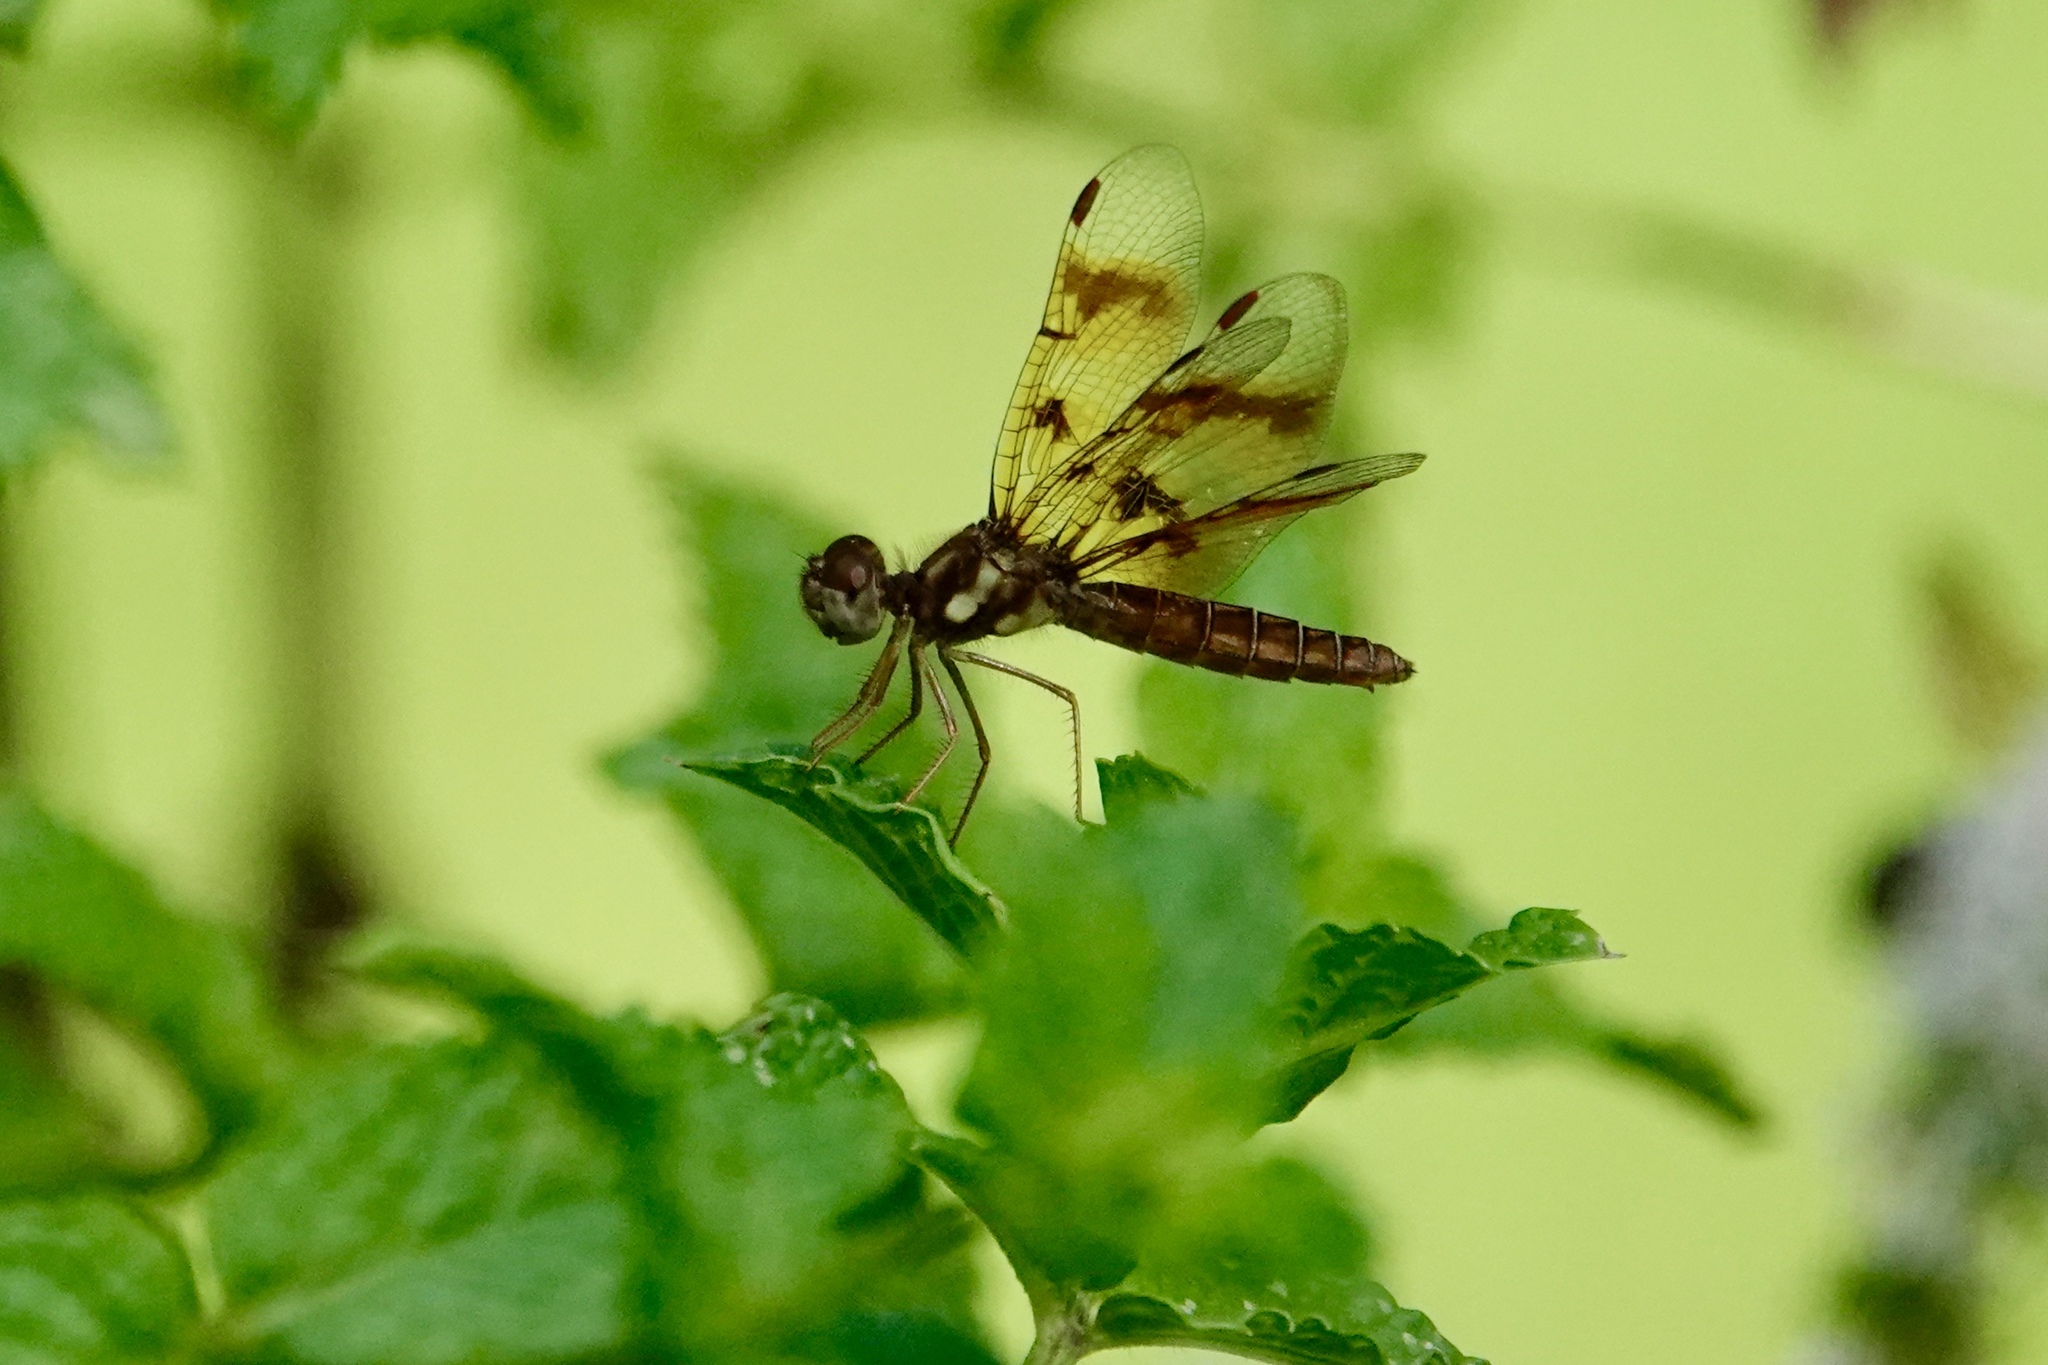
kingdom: Animalia
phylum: Arthropoda
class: Insecta
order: Odonata
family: Libellulidae
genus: Perithemis
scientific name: Perithemis tenera
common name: Eastern amberwing
